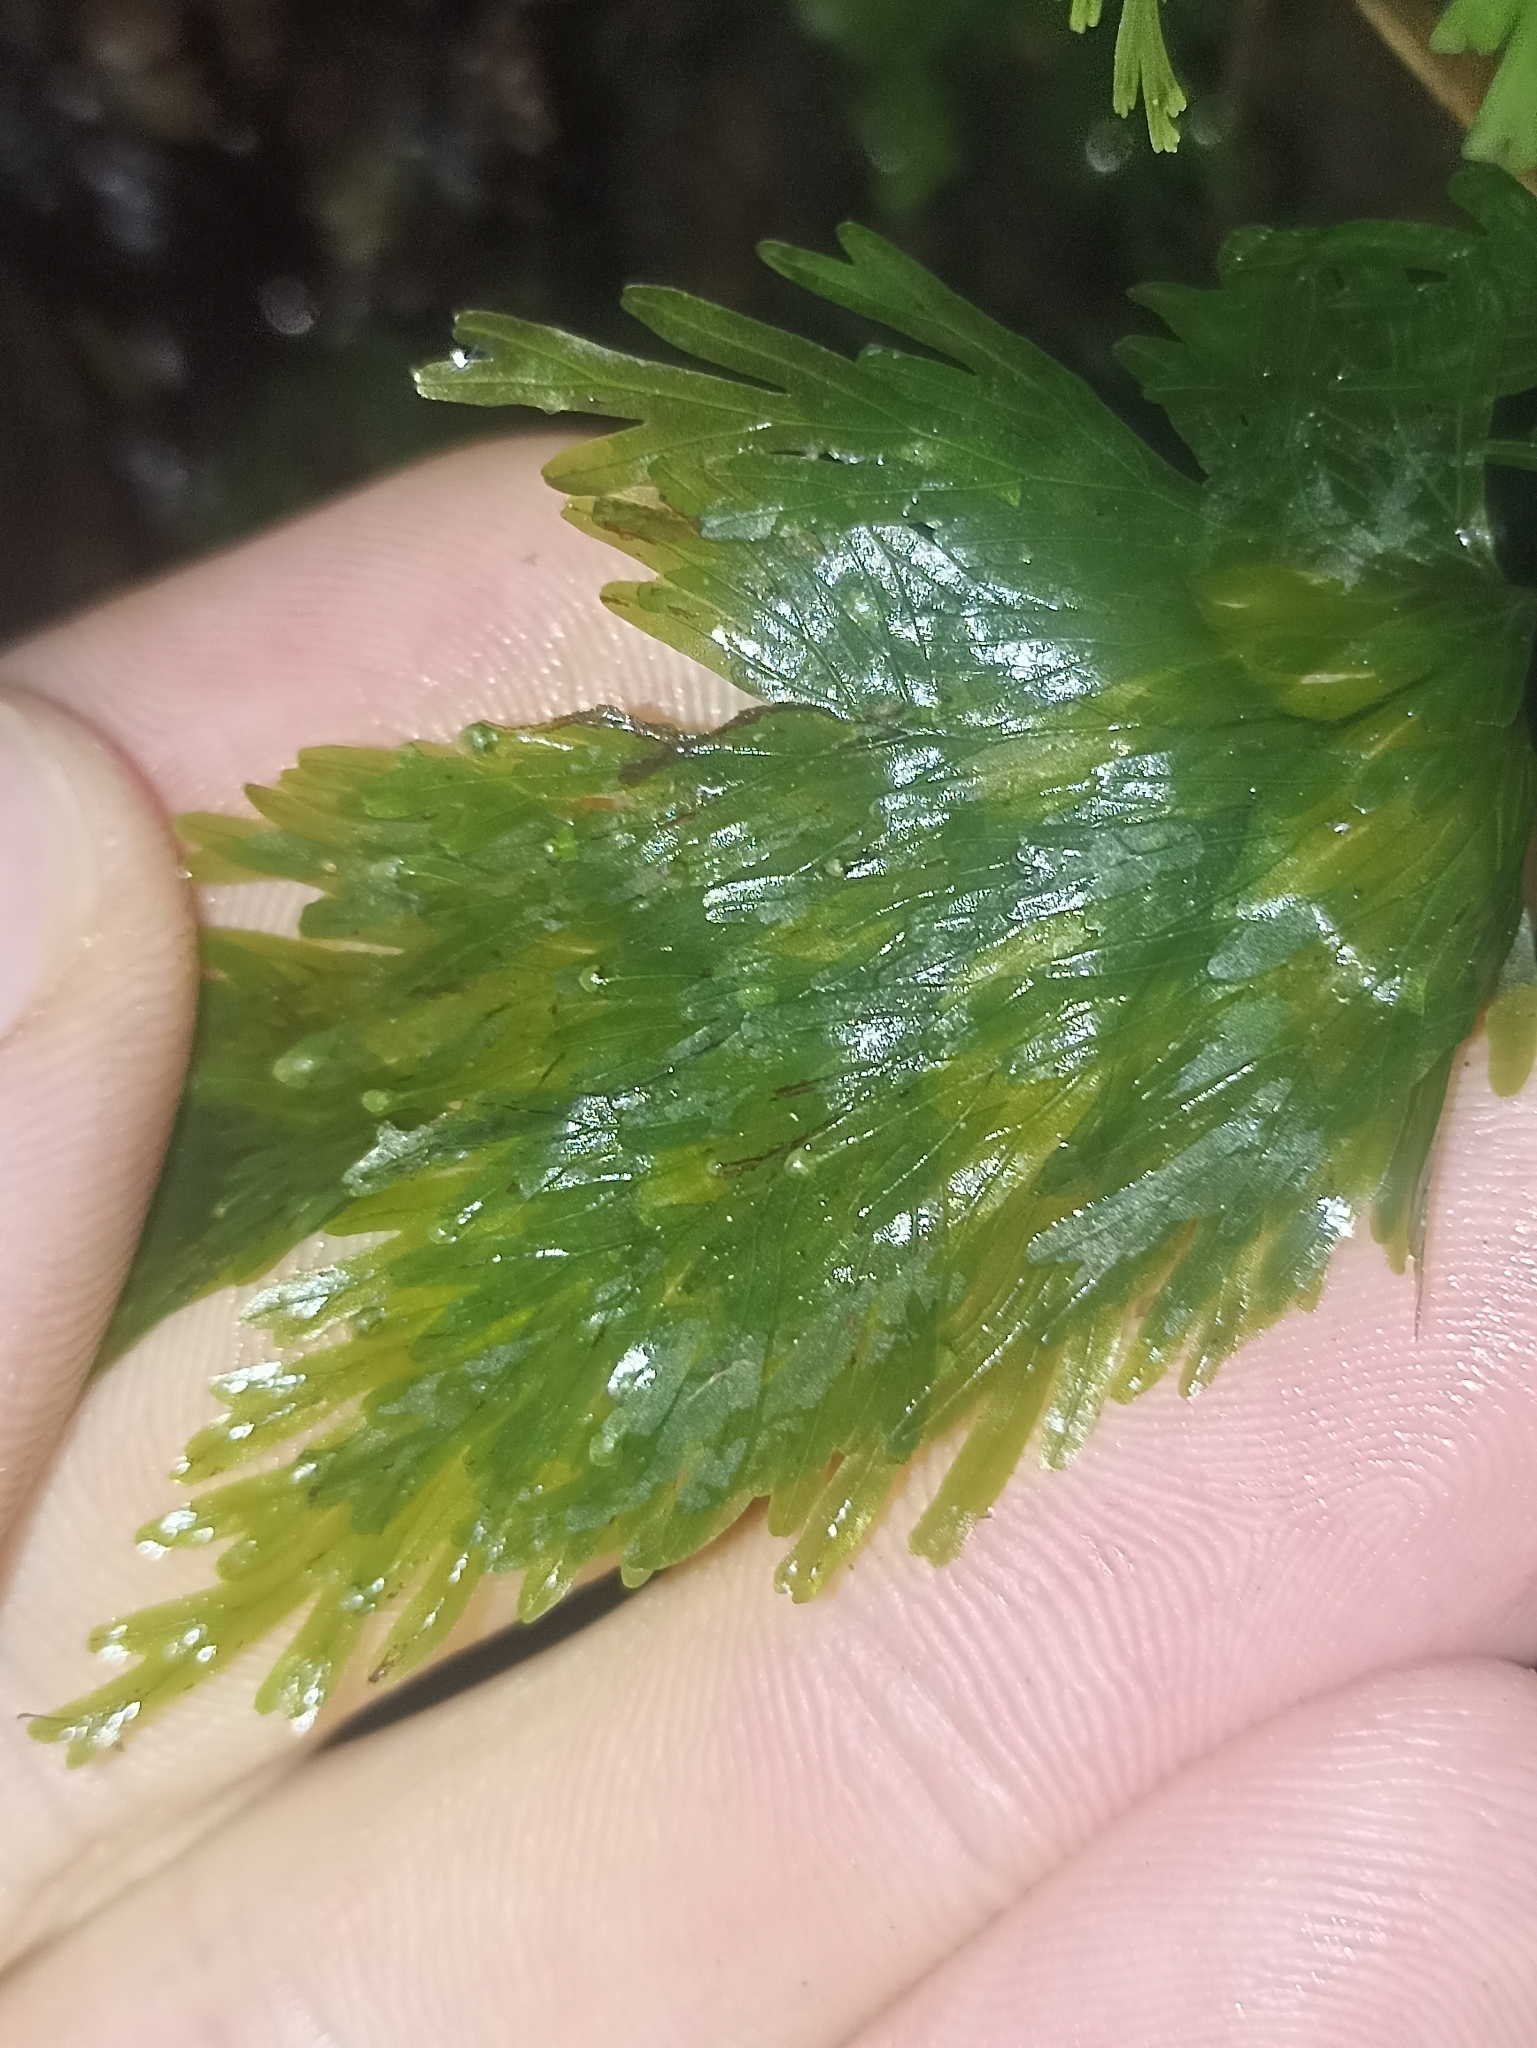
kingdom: Plantae
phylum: Tracheophyta
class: Polypodiopsida
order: Hymenophyllales
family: Hymenophyllaceae
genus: Hymenophyllum
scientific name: Hymenophyllum flabellatum
